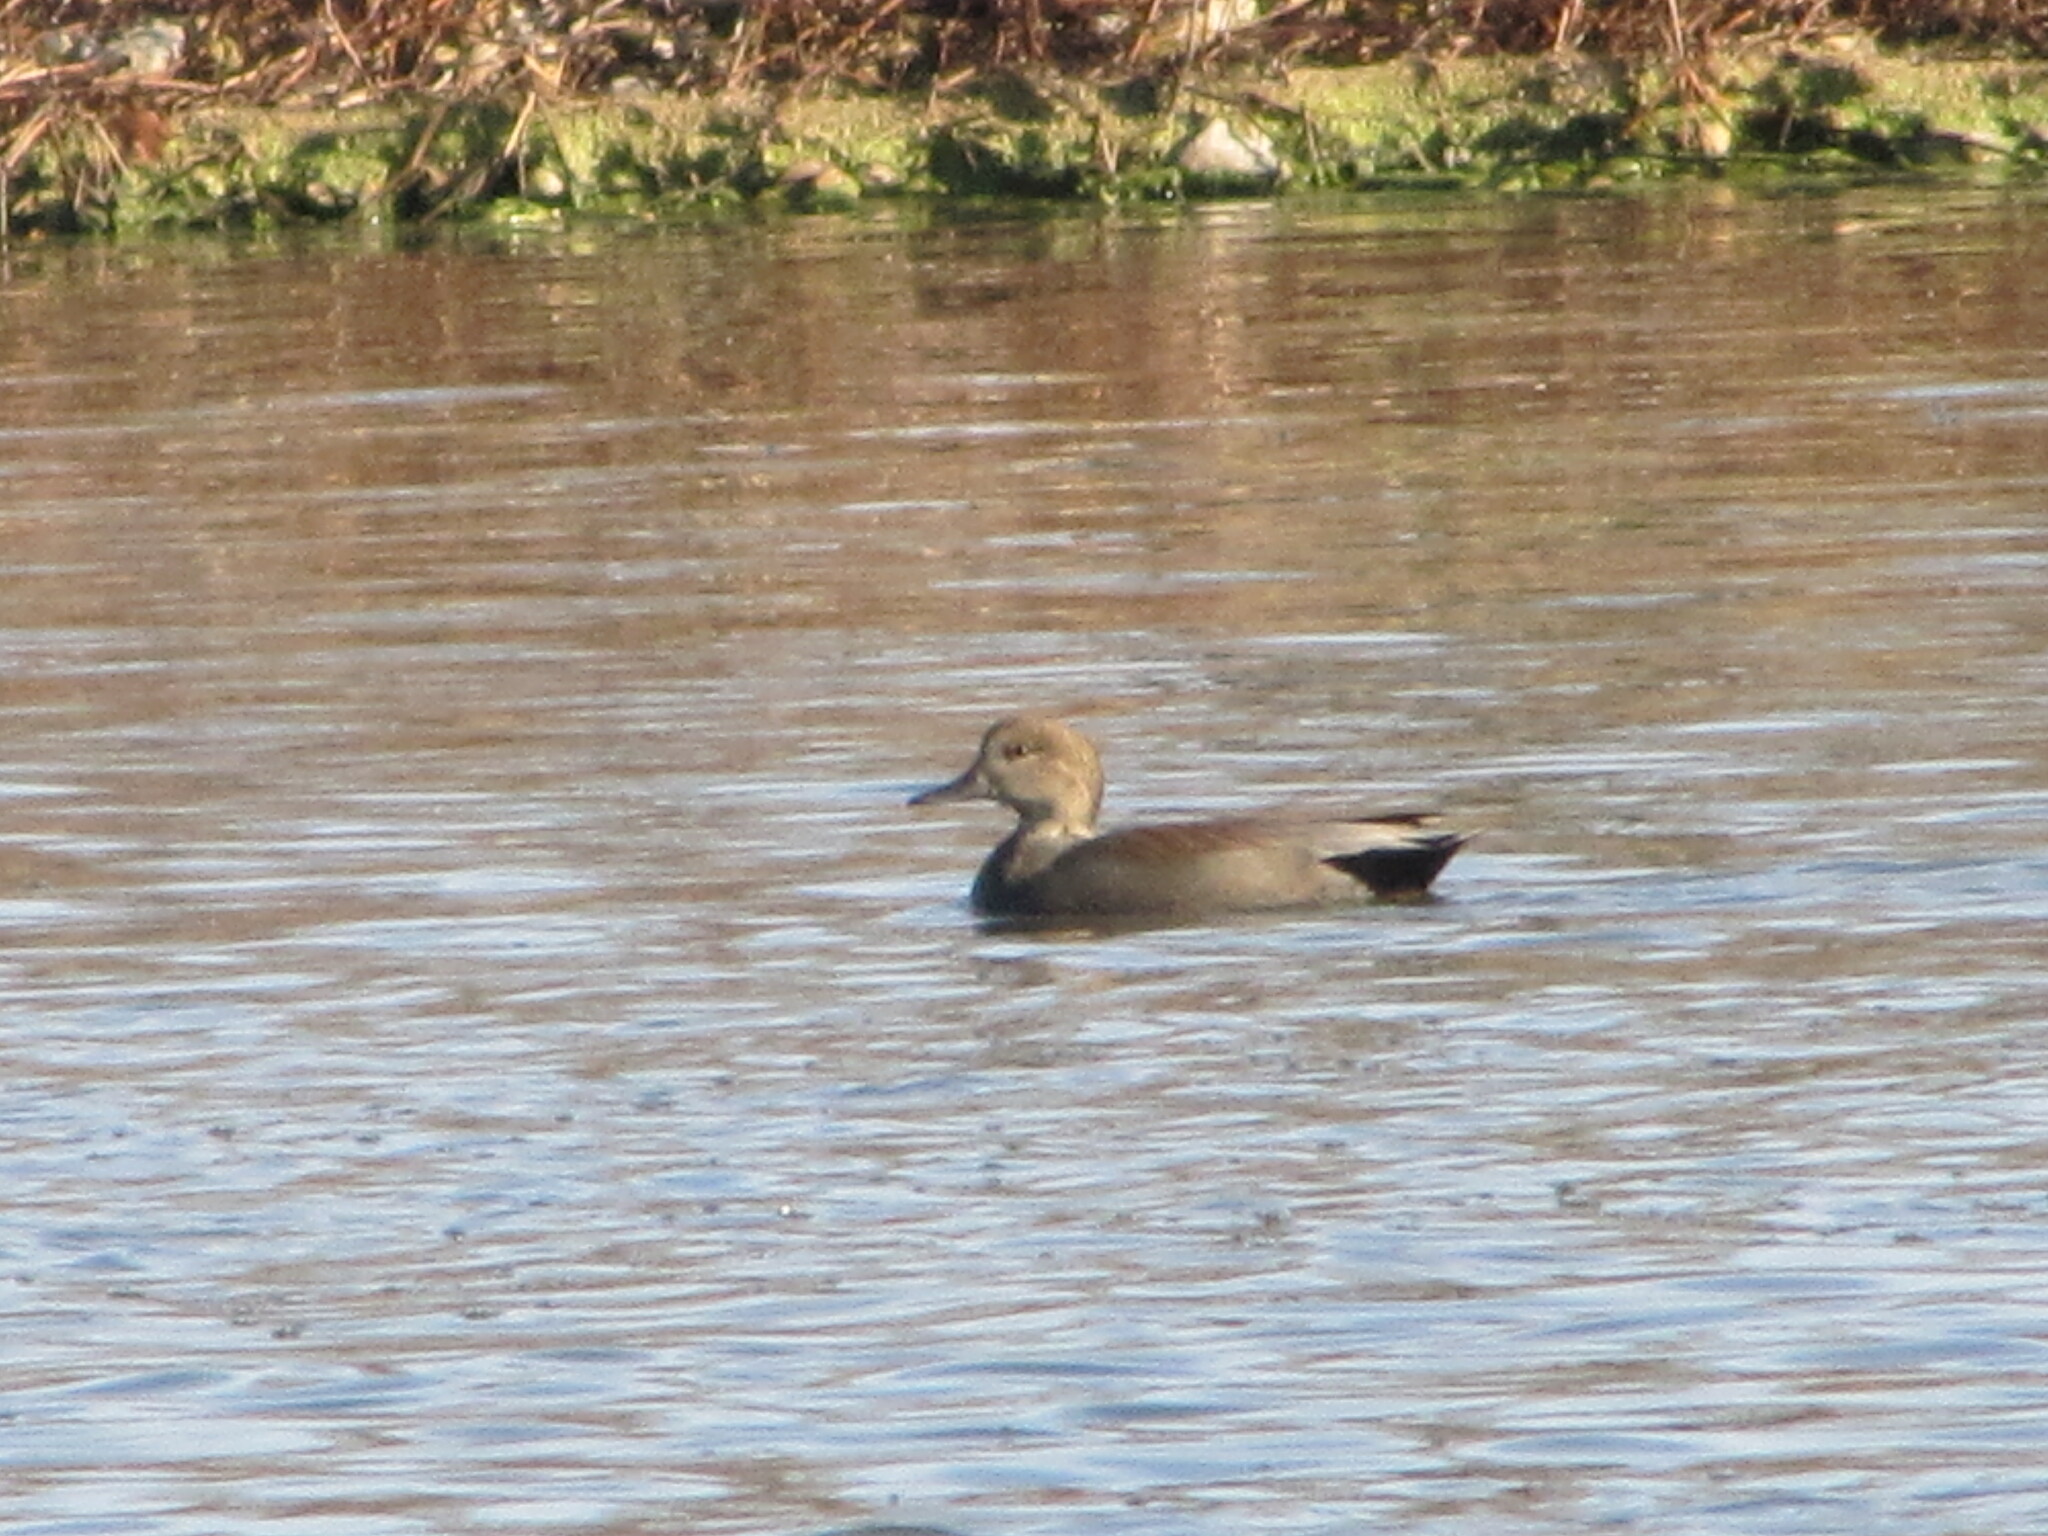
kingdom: Animalia
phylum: Chordata
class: Aves
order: Anseriformes
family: Anatidae
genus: Mareca
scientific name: Mareca strepera
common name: Gadwall
